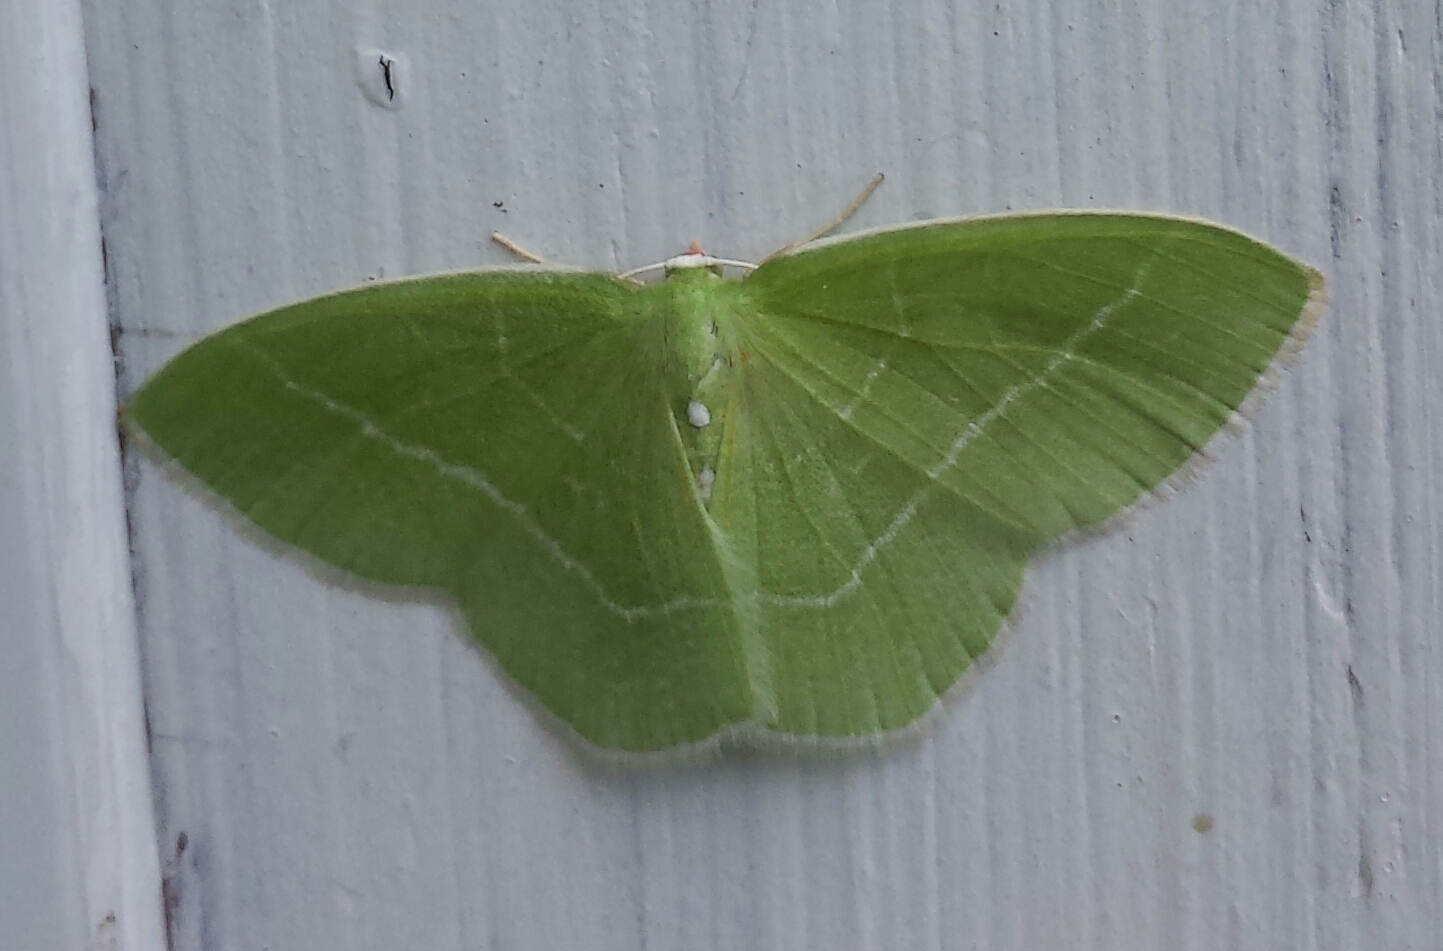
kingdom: Animalia
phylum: Arthropoda
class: Insecta
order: Lepidoptera
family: Geometridae
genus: Nemoria
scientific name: Nemoria mimosaria
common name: White-fringed emerald
